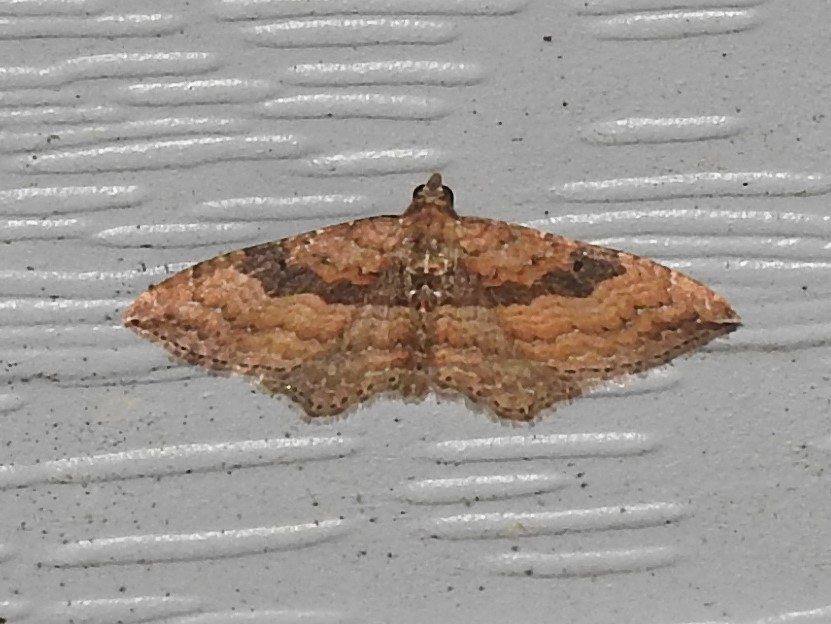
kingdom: Animalia
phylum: Arthropoda
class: Insecta
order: Lepidoptera
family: Geometridae
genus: Orthonama
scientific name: Orthonama obstipata
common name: The gem
